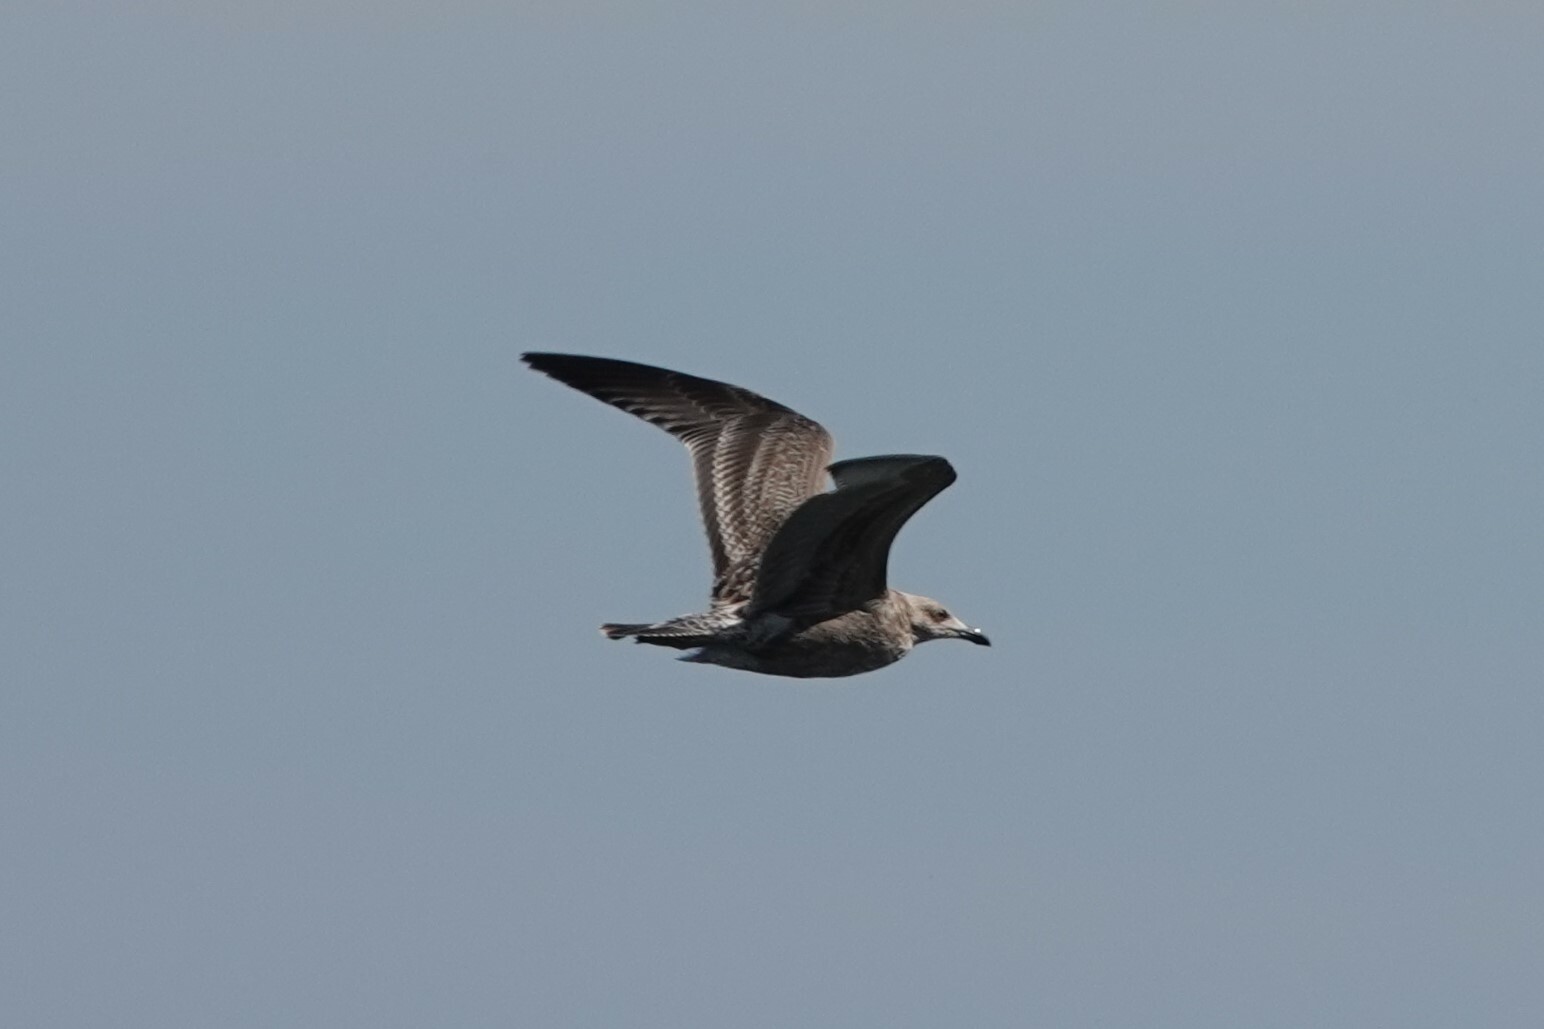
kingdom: Animalia
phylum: Chordata
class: Aves
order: Charadriiformes
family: Laridae
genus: Larus
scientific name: Larus argentatus
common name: Herring gull
